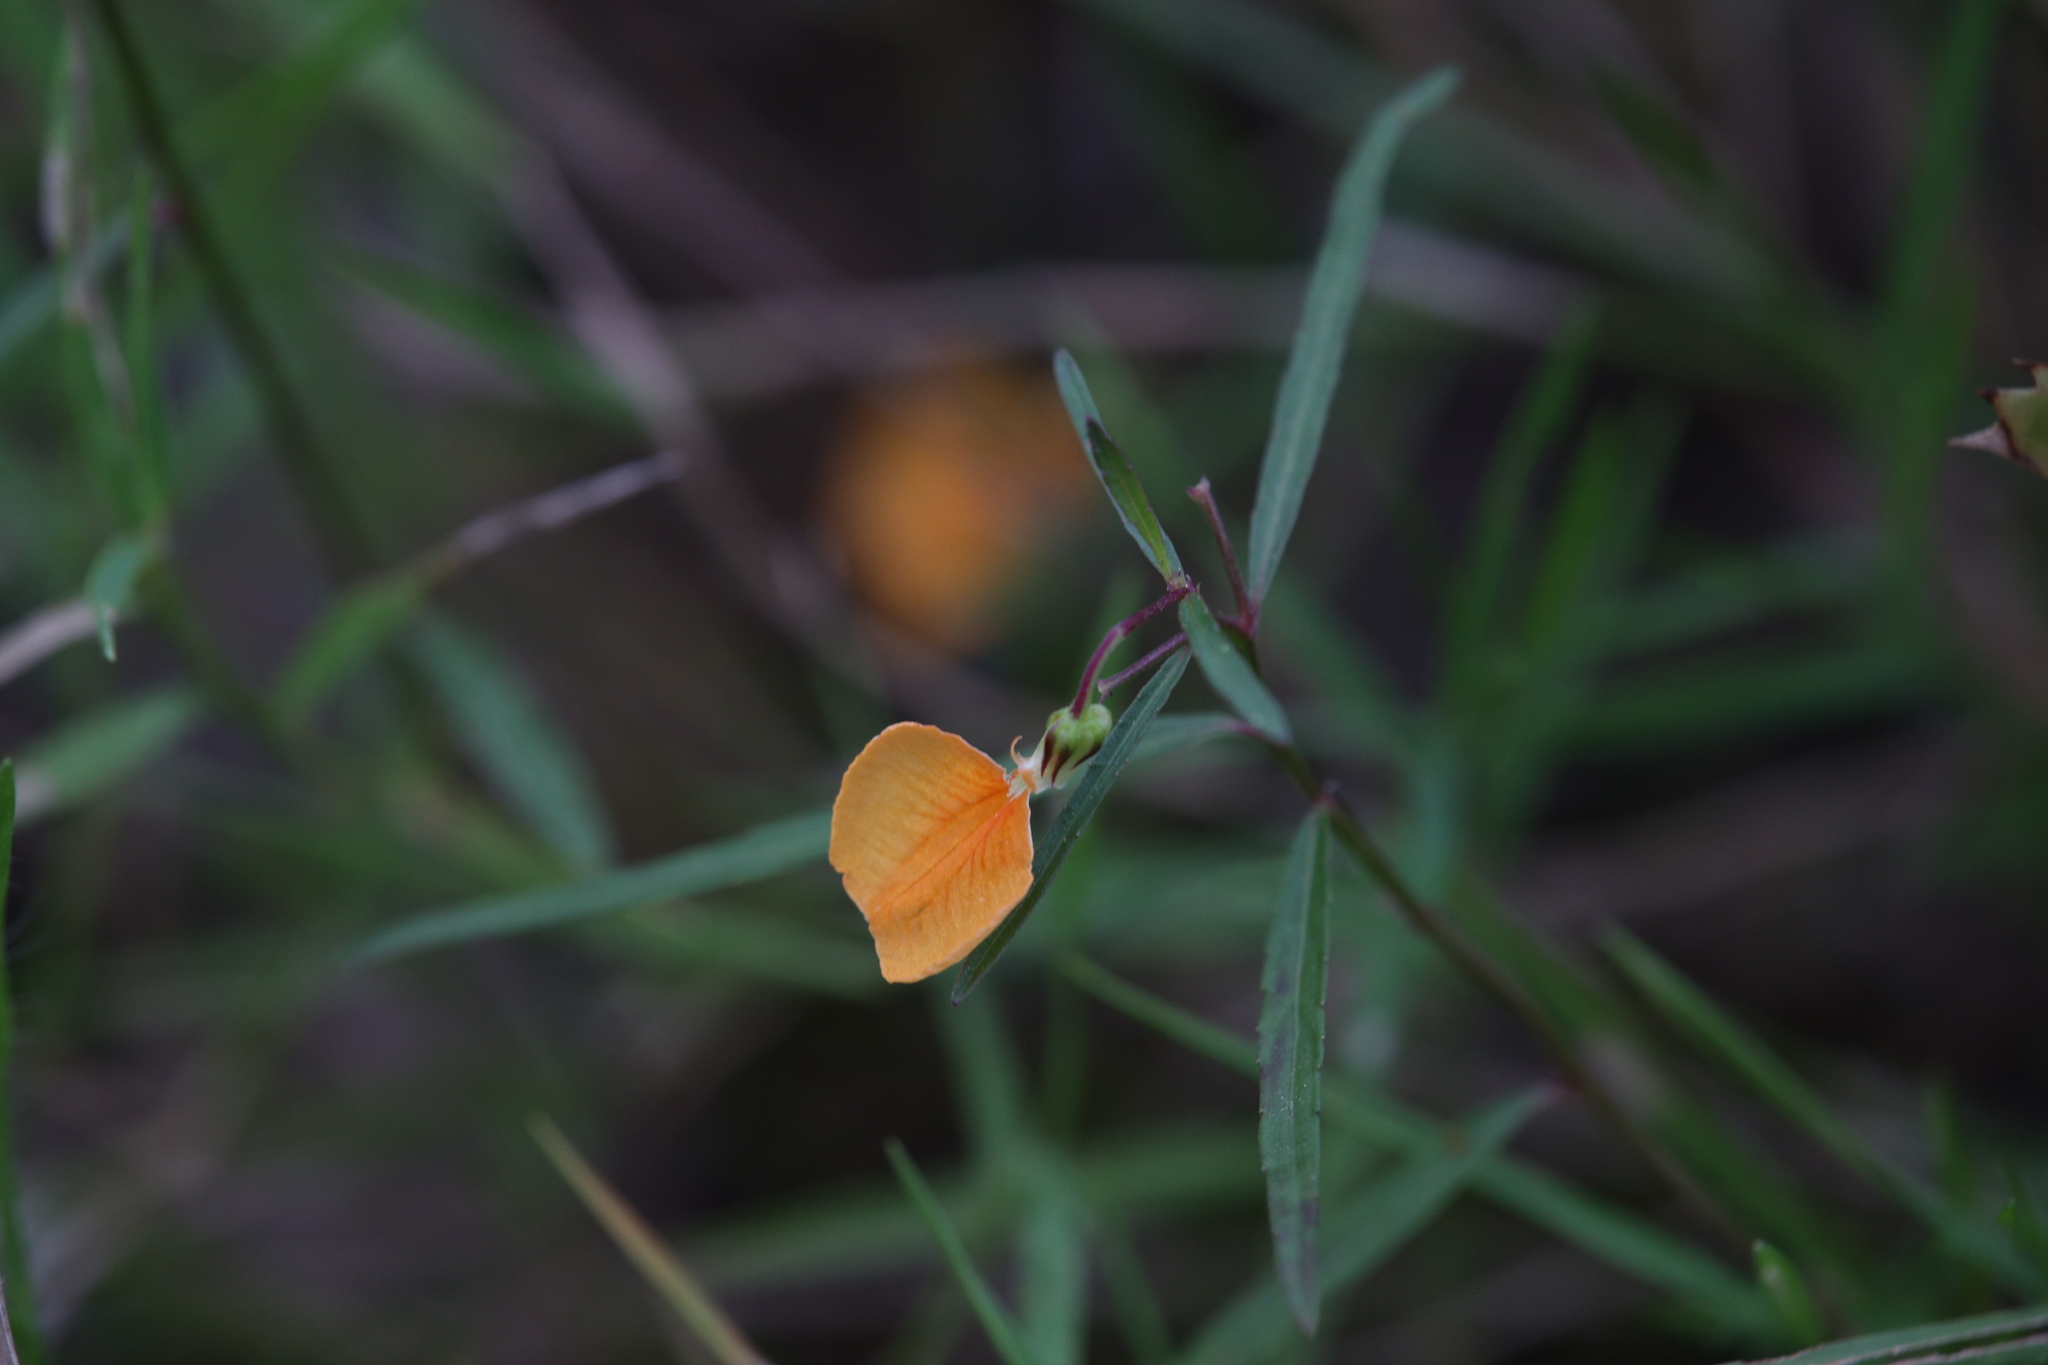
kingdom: Plantae
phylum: Tracheophyta
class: Magnoliopsida
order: Malpighiales
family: Violaceae
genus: Pigea
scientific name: Pigea stellarioides
